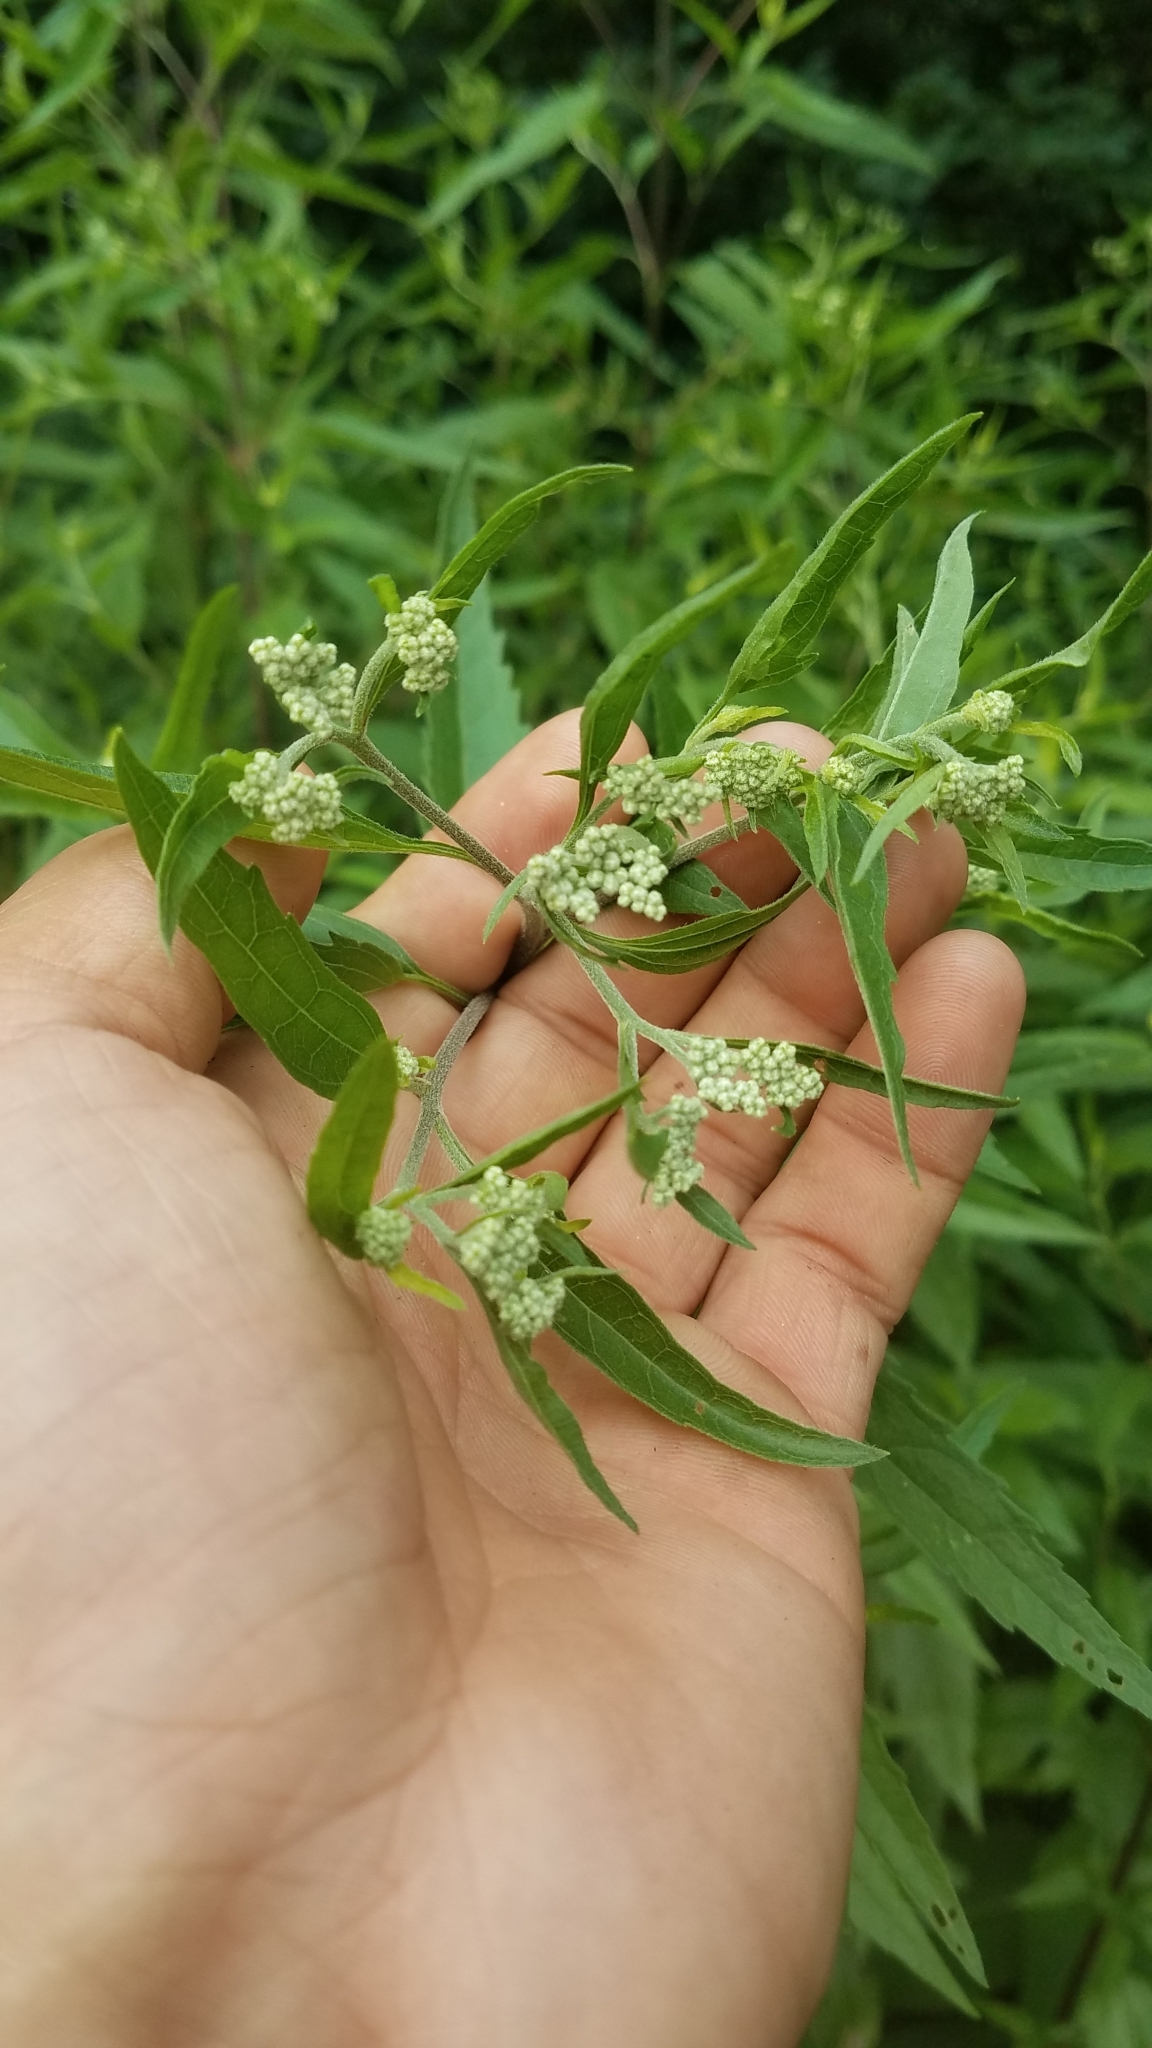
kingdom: Plantae
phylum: Tracheophyta
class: Magnoliopsida
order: Asterales
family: Asteraceae
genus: Eupatorium
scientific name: Eupatorium serotinum
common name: Late boneset
